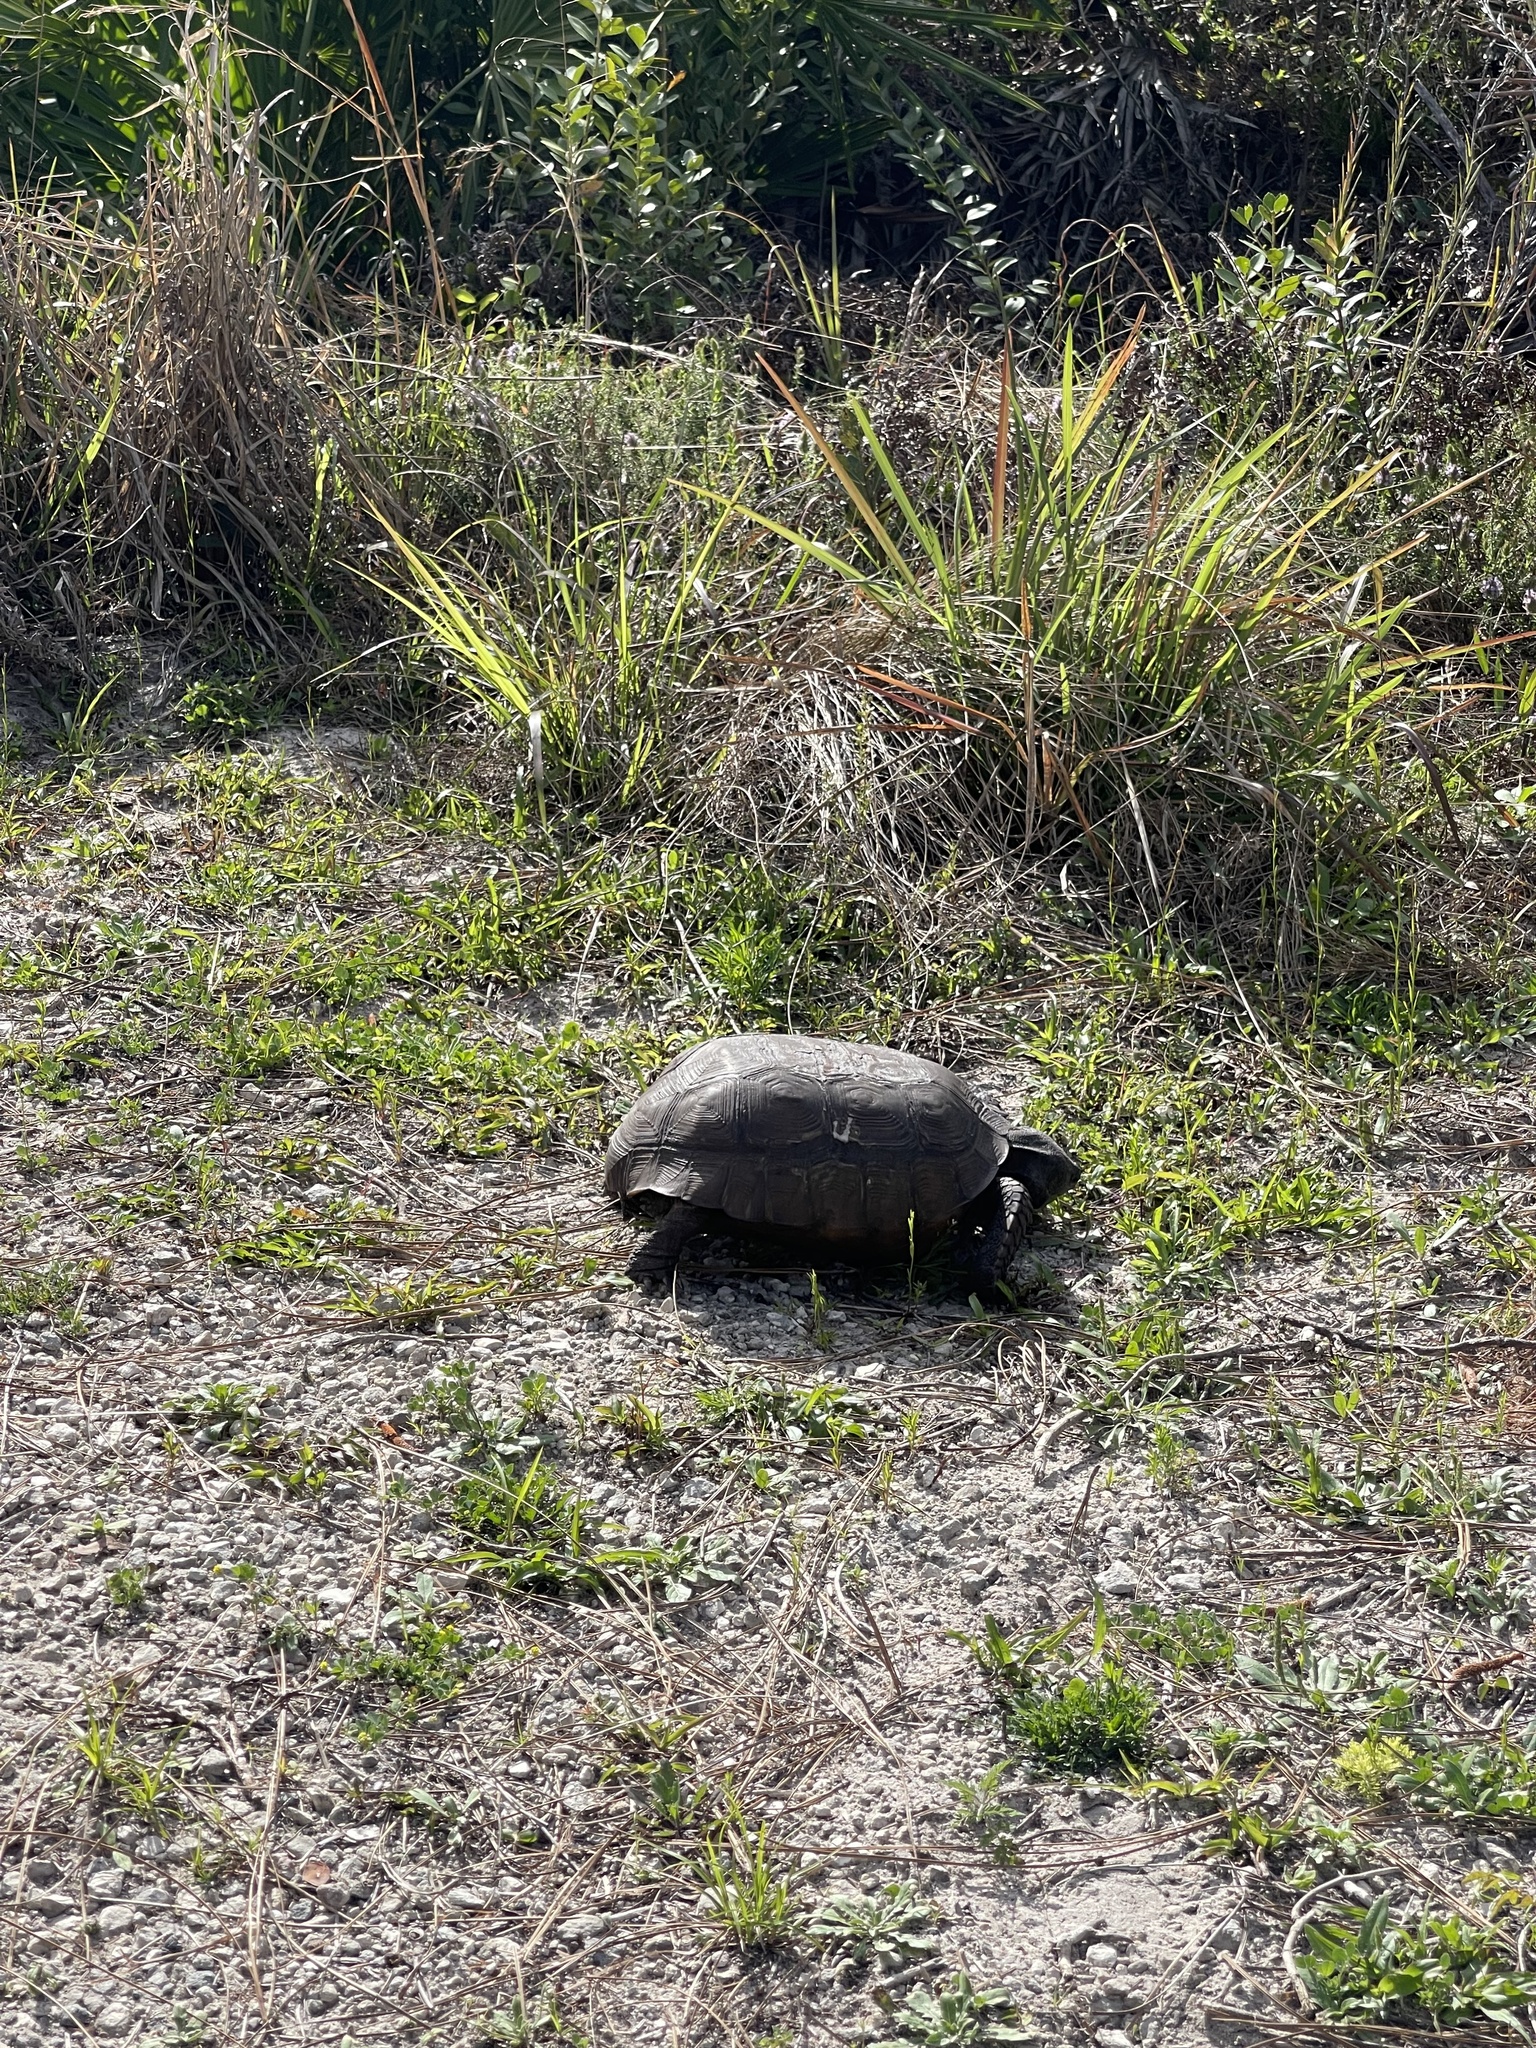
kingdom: Animalia
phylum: Chordata
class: Testudines
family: Testudinidae
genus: Gopherus
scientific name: Gopherus polyphemus
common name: Florida gopher tortoise
